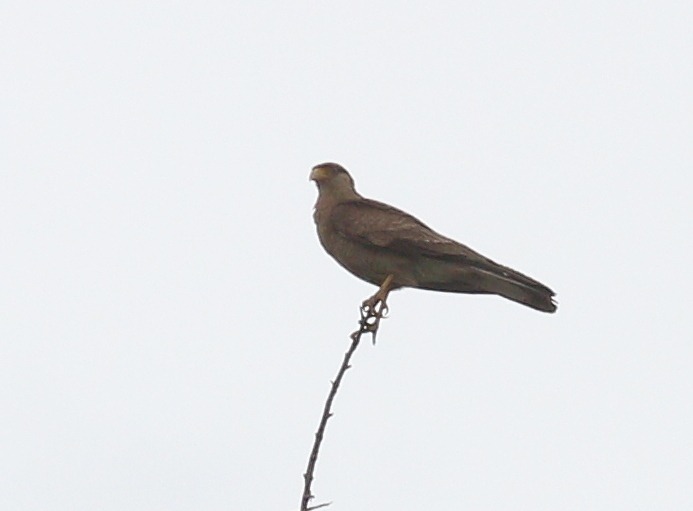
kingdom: Animalia
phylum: Chordata
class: Aves
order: Falconiformes
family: Falconidae
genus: Daptrius
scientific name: Daptrius
